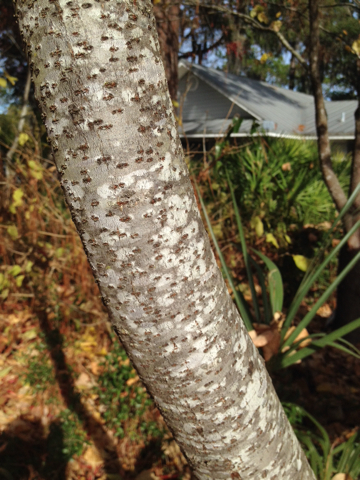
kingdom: Plantae
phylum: Tracheophyta
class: Magnoliopsida
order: Sapindales
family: Anacardiaceae
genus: Rhus
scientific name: Rhus copallina
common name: Shining sumac
